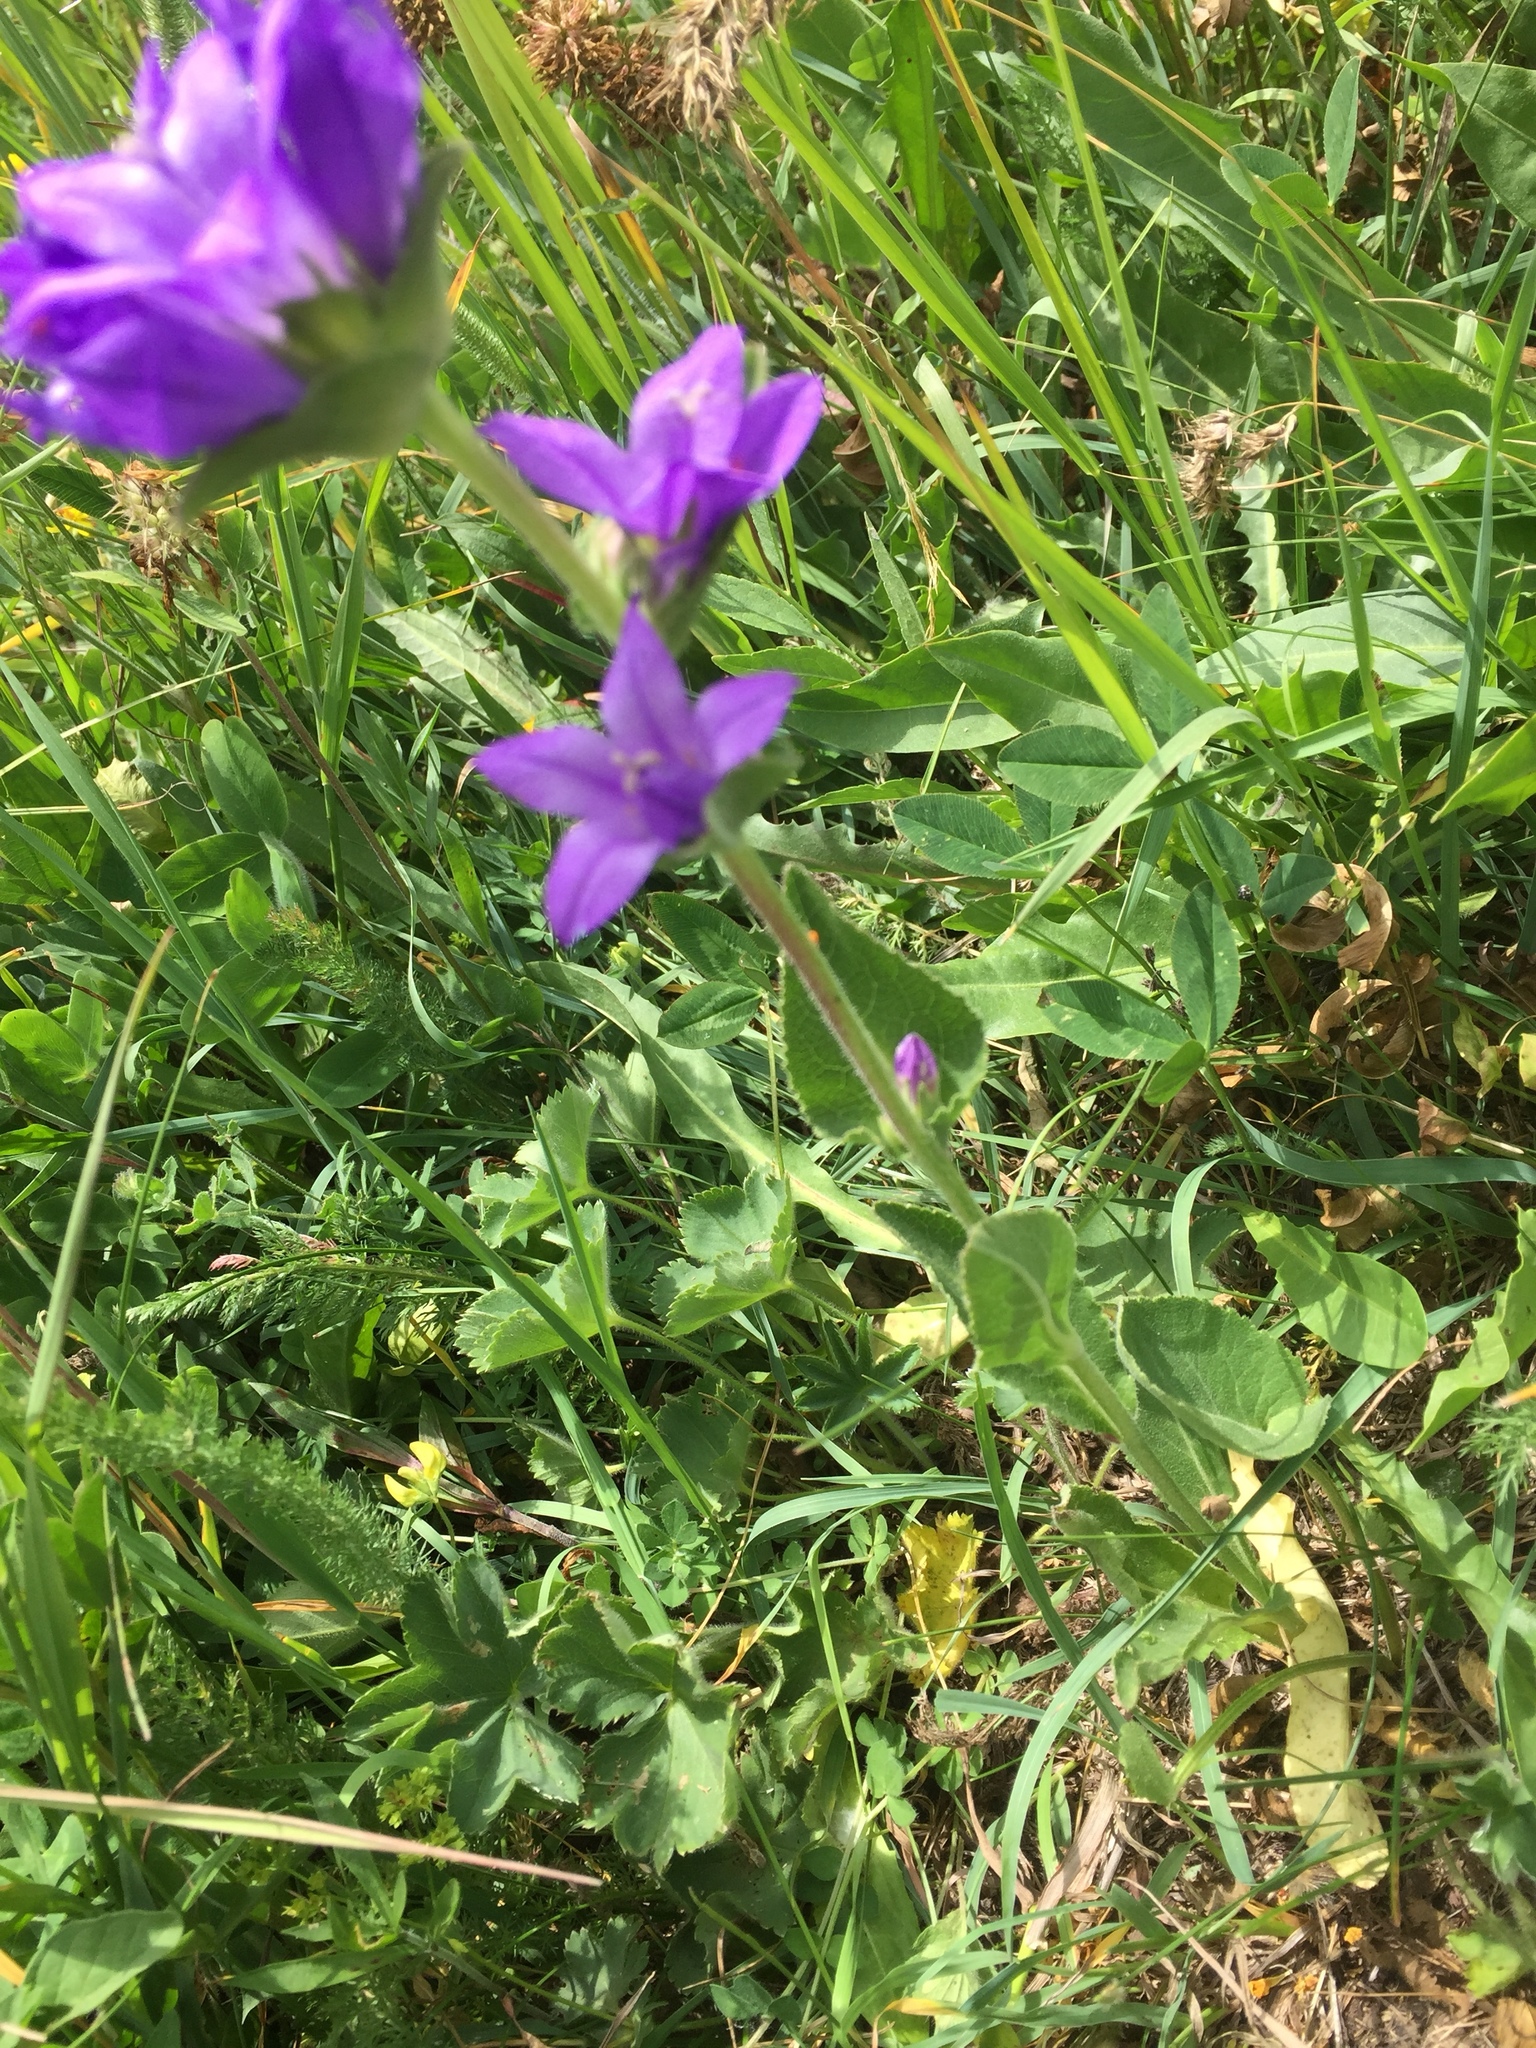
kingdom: Plantae
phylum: Tracheophyta
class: Magnoliopsida
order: Asterales
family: Campanulaceae
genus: Campanula
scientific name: Campanula glomerata
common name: Clustered bellflower
